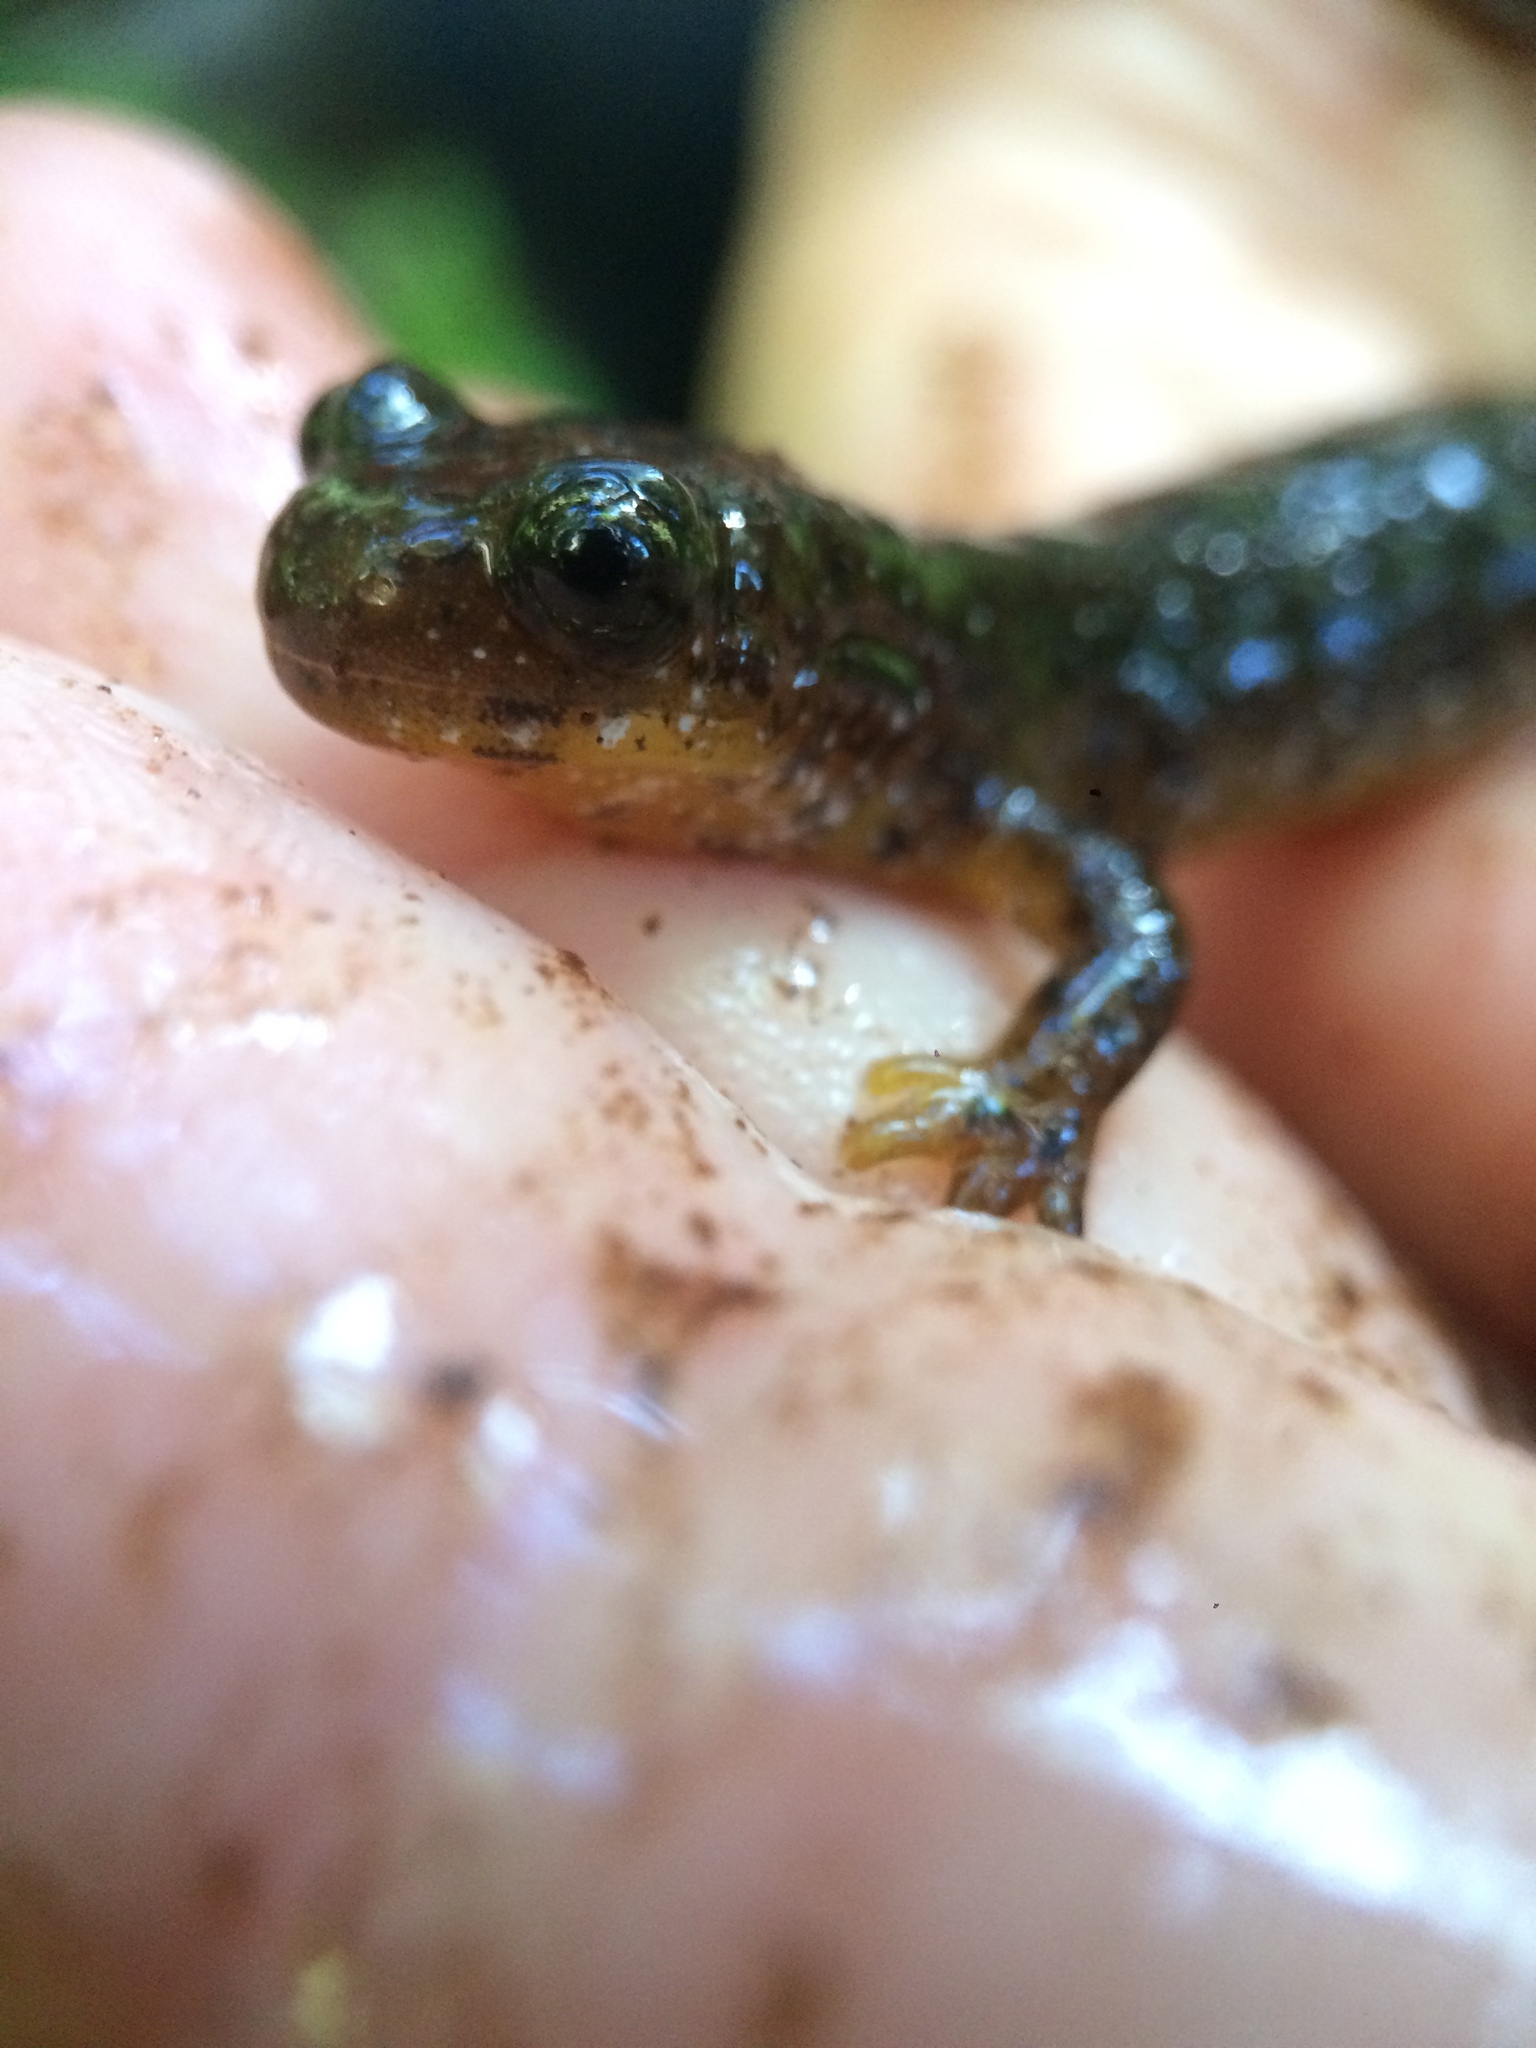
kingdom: Animalia
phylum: Chordata
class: Amphibia
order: Caudata
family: Rhyacotritonidae
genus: Rhyacotriton
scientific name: Rhyacotriton variegatus
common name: Southern torrent salamander
